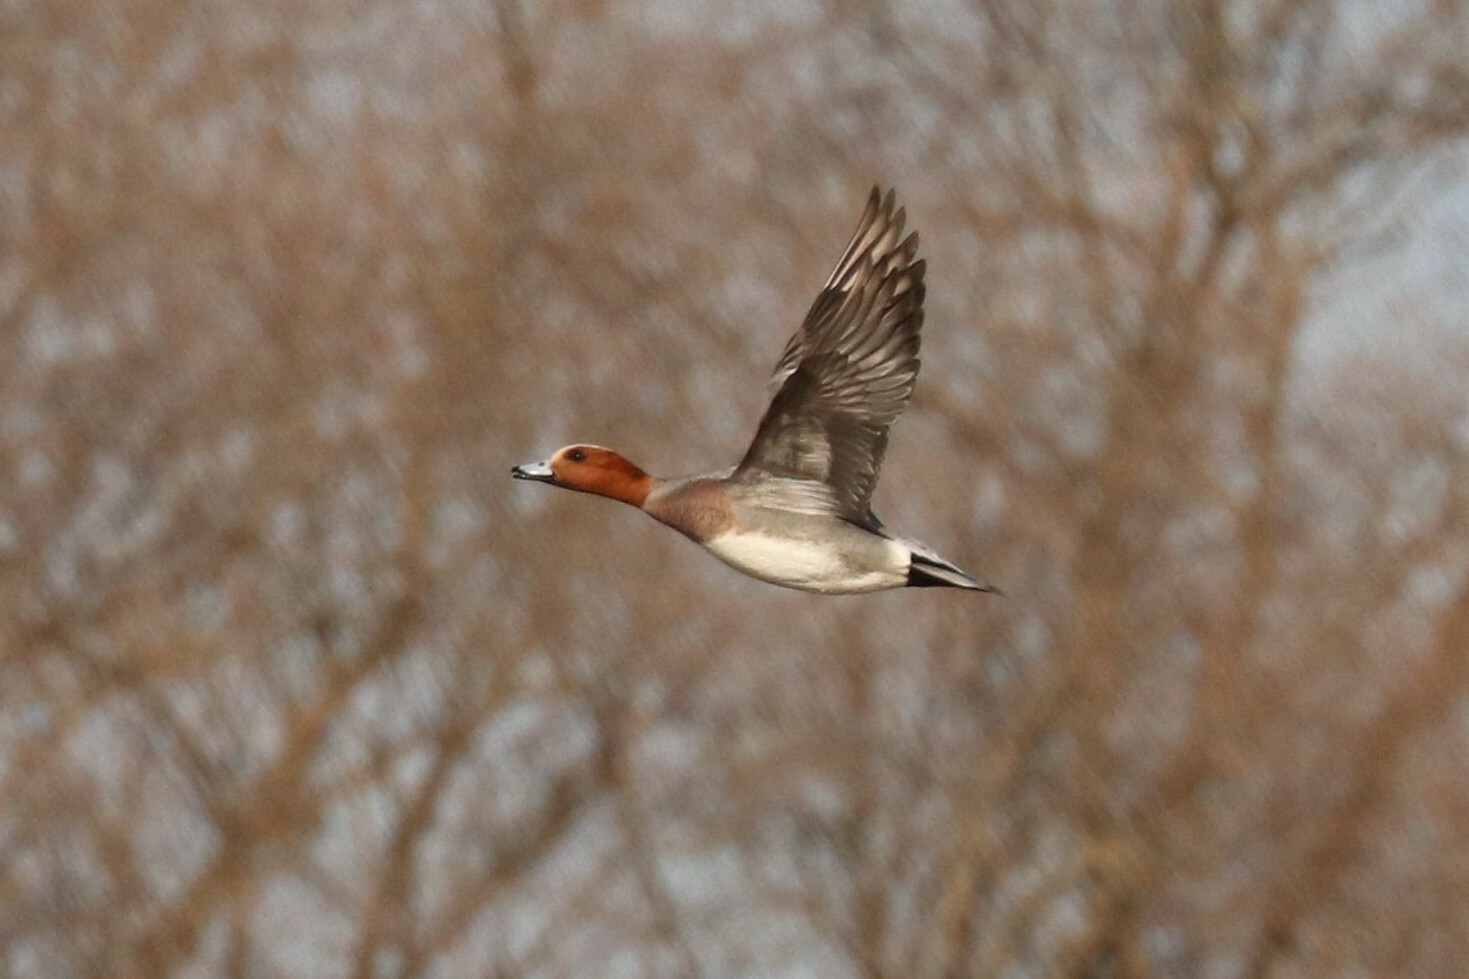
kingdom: Animalia
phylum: Chordata
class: Aves
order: Anseriformes
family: Anatidae
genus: Mareca
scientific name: Mareca penelope
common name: Eurasian wigeon
